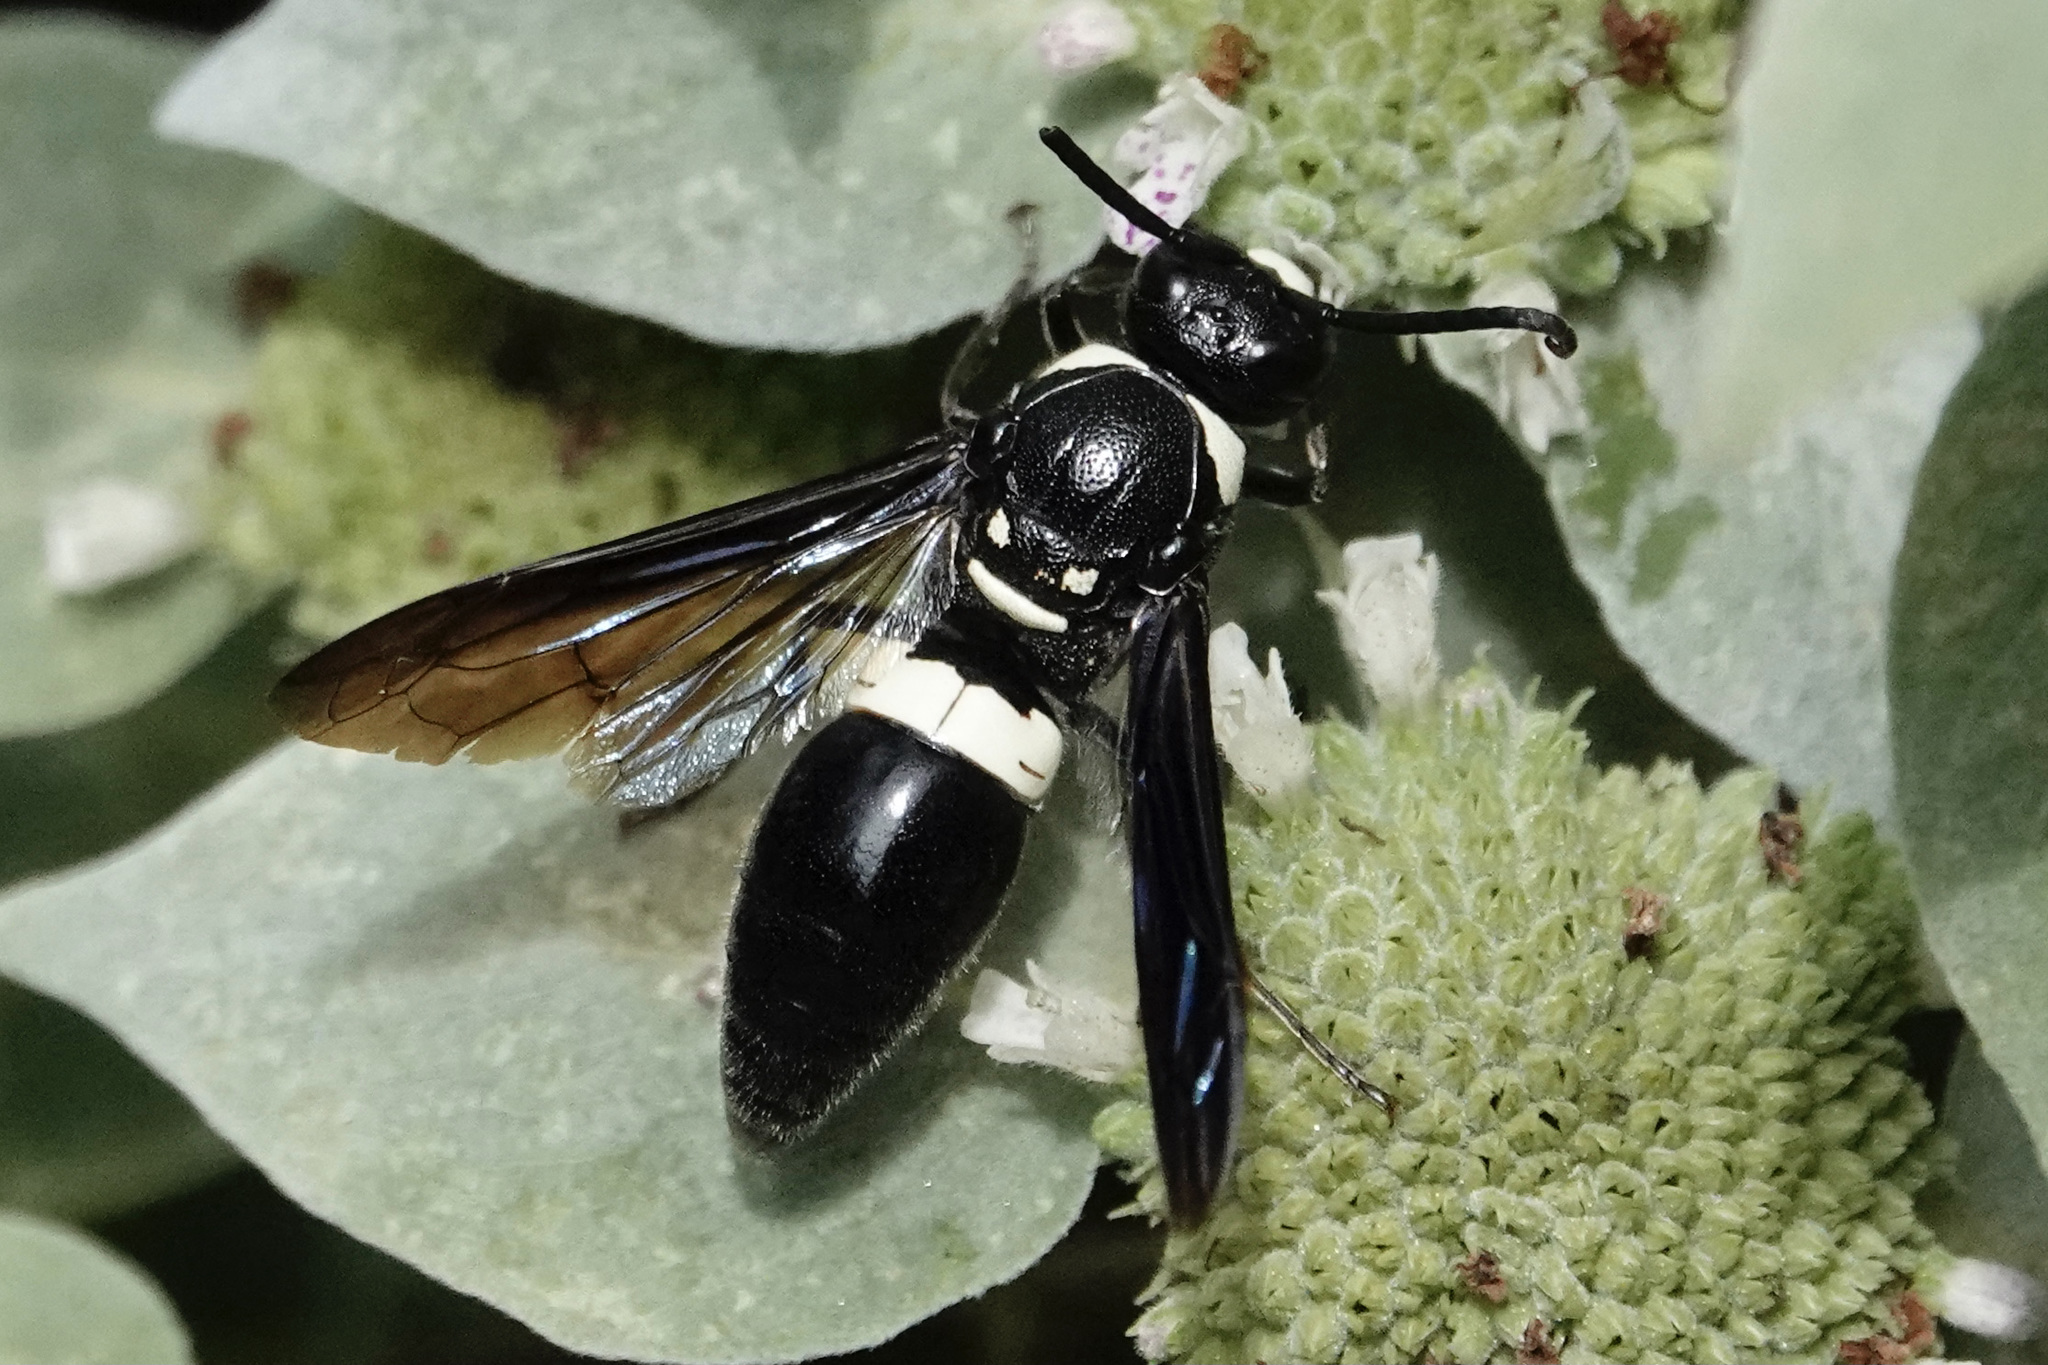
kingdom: Animalia
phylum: Arthropoda
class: Insecta
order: Hymenoptera
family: Eumenidae
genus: Monobia
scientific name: Monobia quadridens
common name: Four-toothed mason wasp
